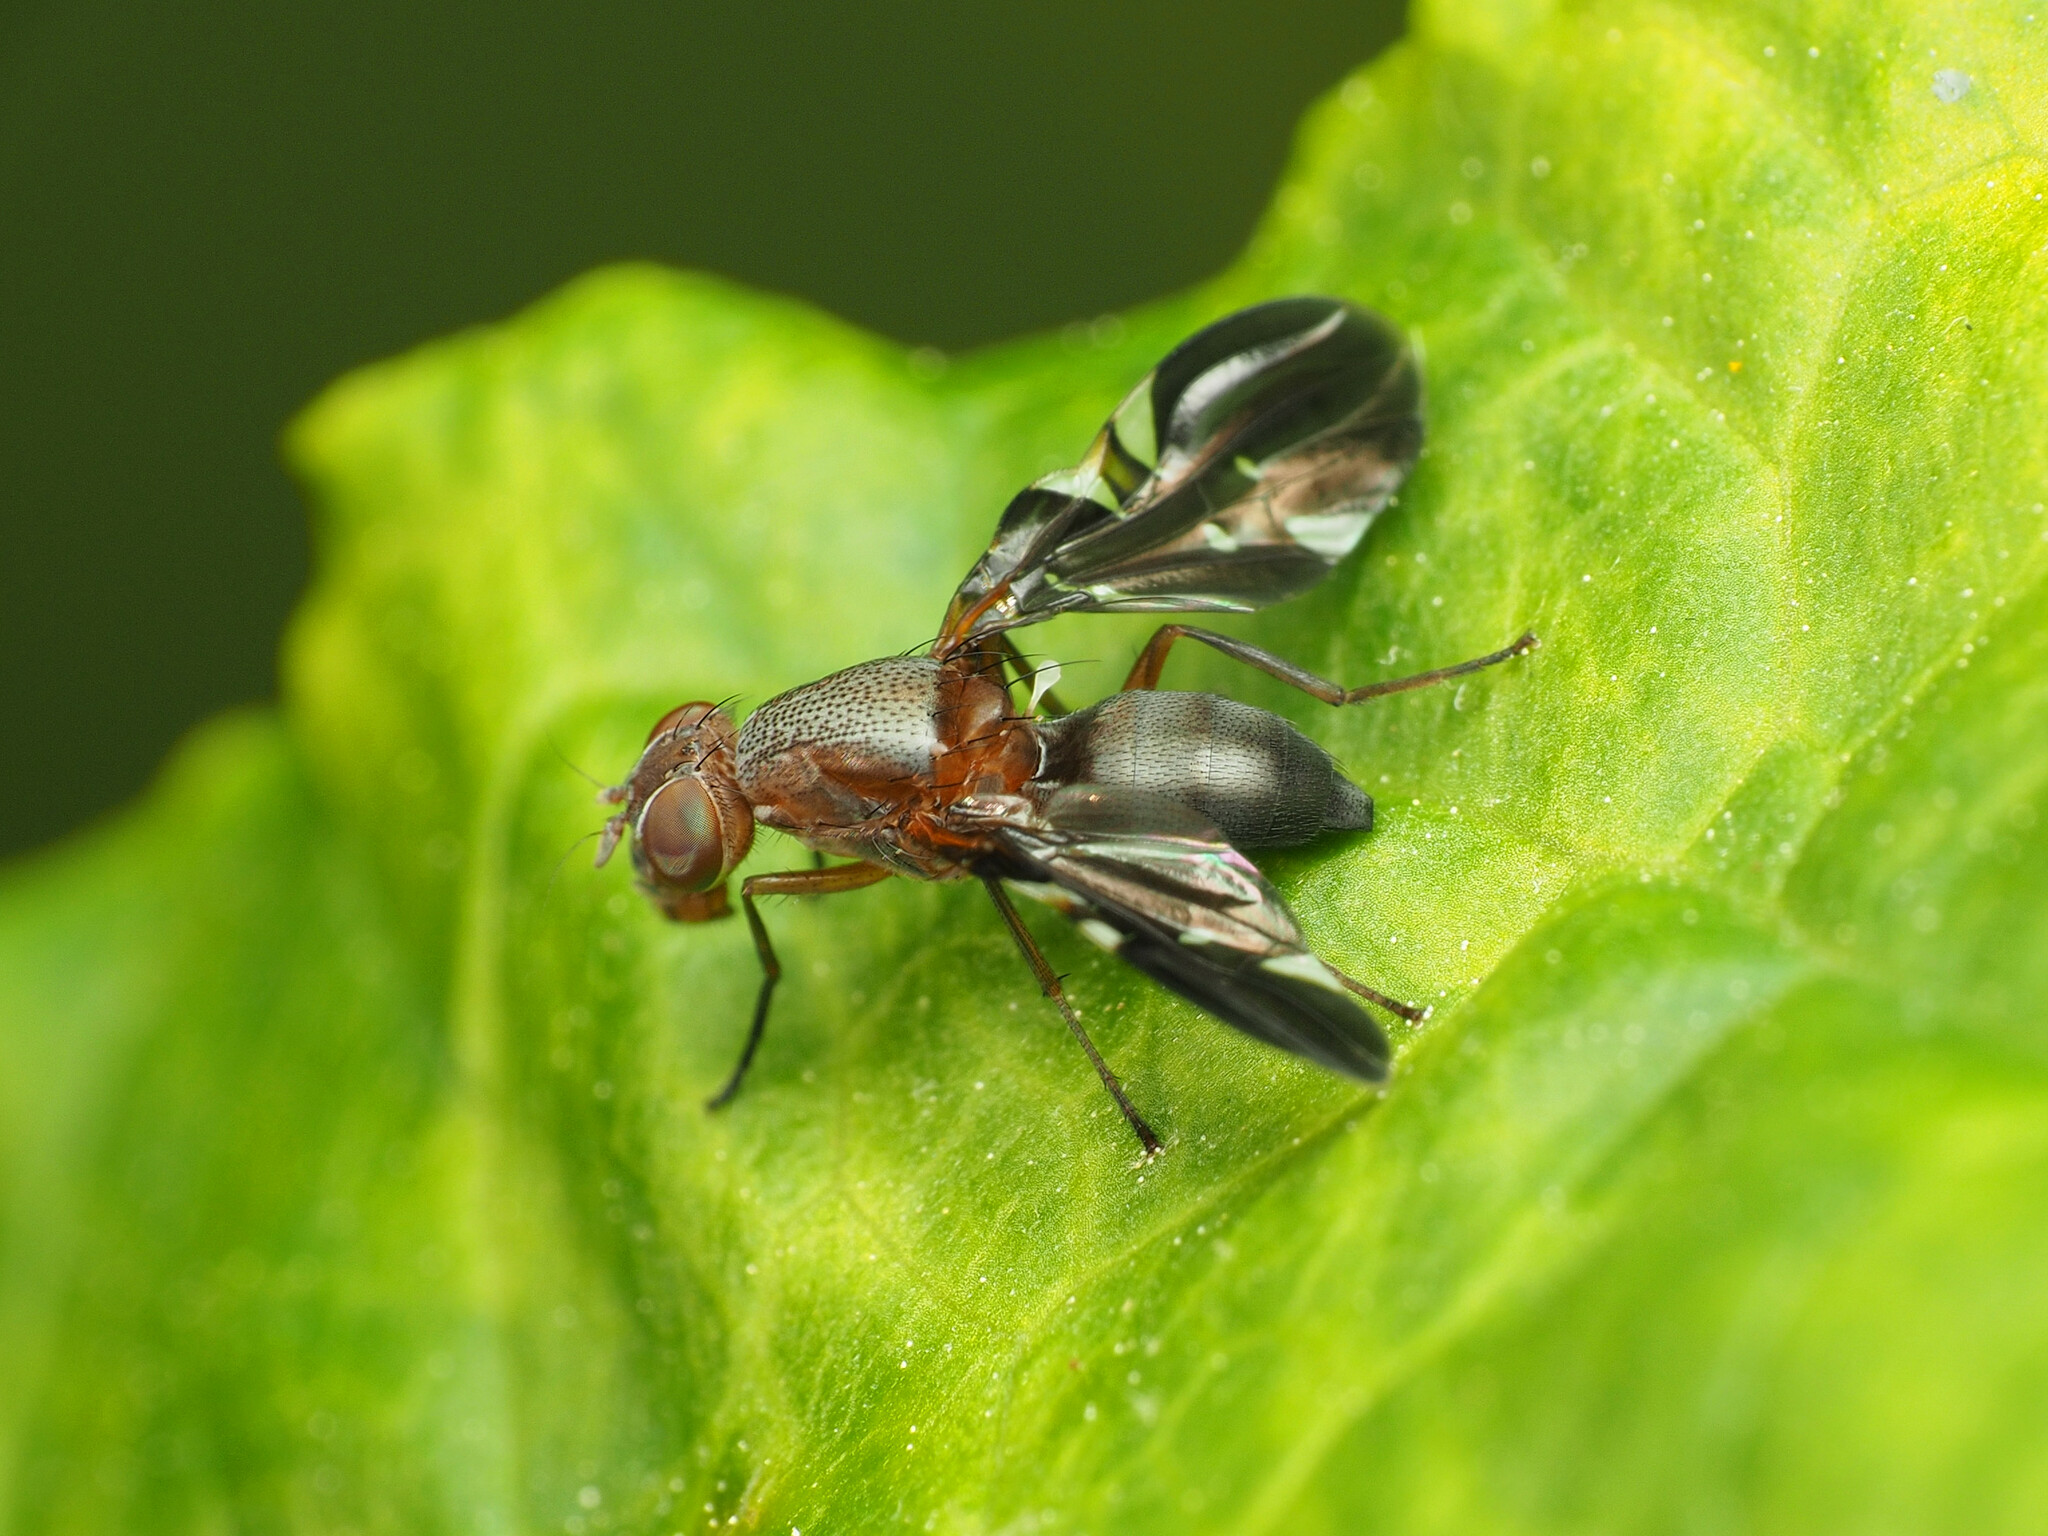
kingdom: Animalia
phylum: Arthropoda
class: Insecta
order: Diptera
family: Ulidiidae
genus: Delphinia
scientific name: Delphinia picta
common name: Common picture-winged fly
